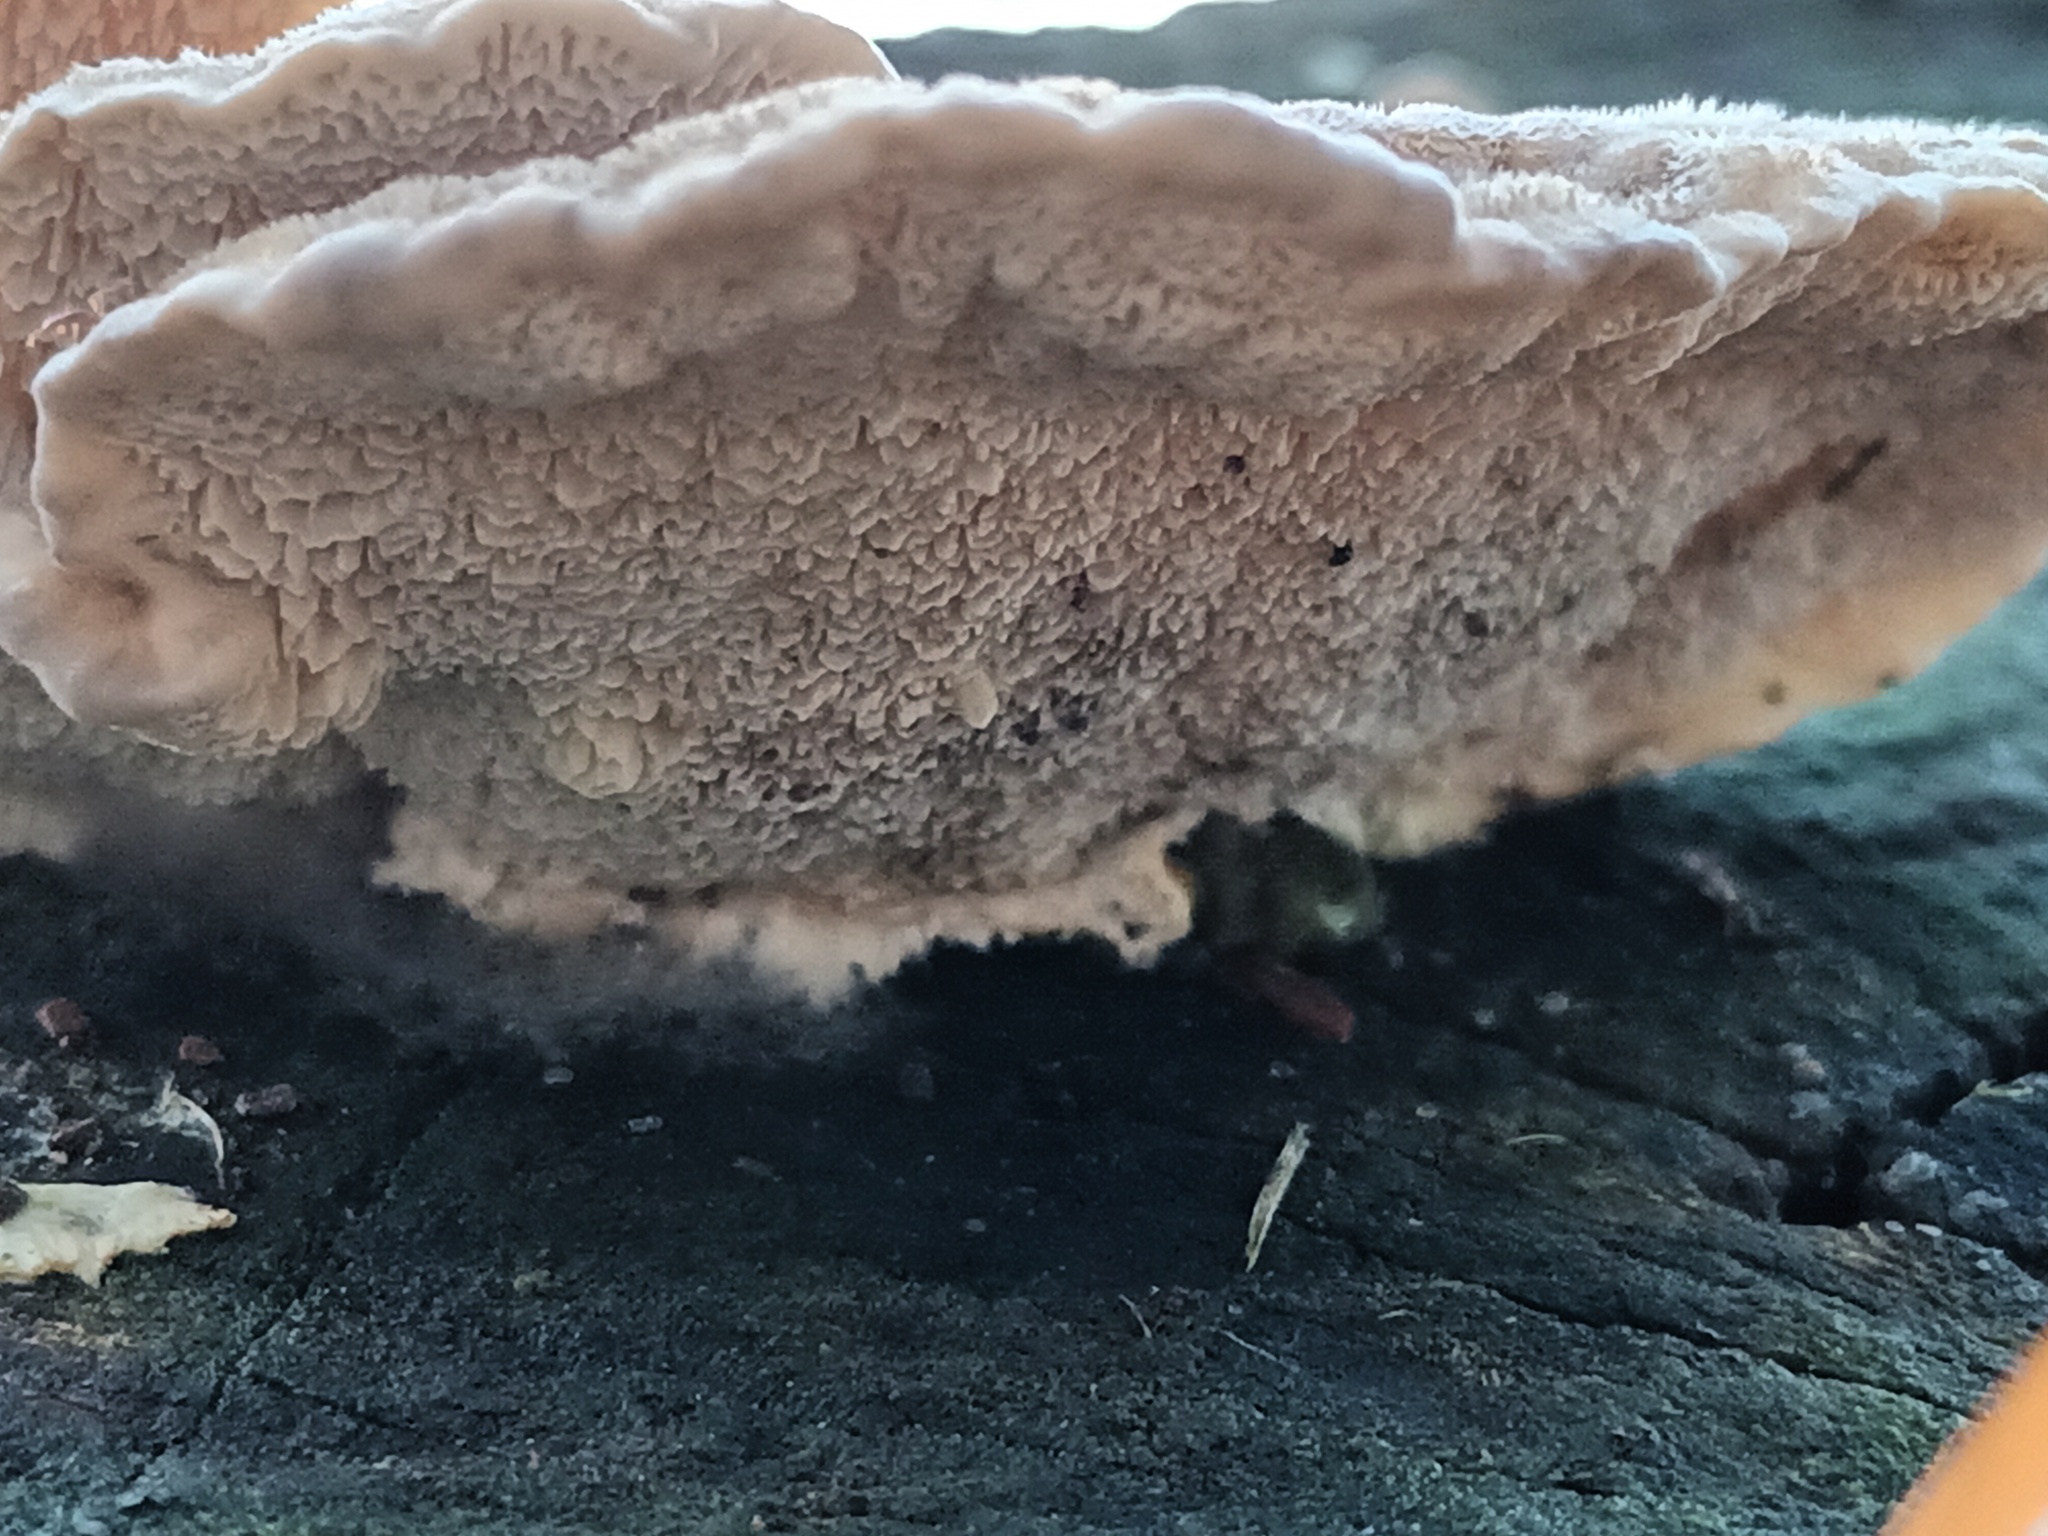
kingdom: Fungi
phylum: Basidiomycota
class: Agaricomycetes
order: Polyporales
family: Polyporaceae
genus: Trametes
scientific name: Trametes versicolor
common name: Turkeytail
